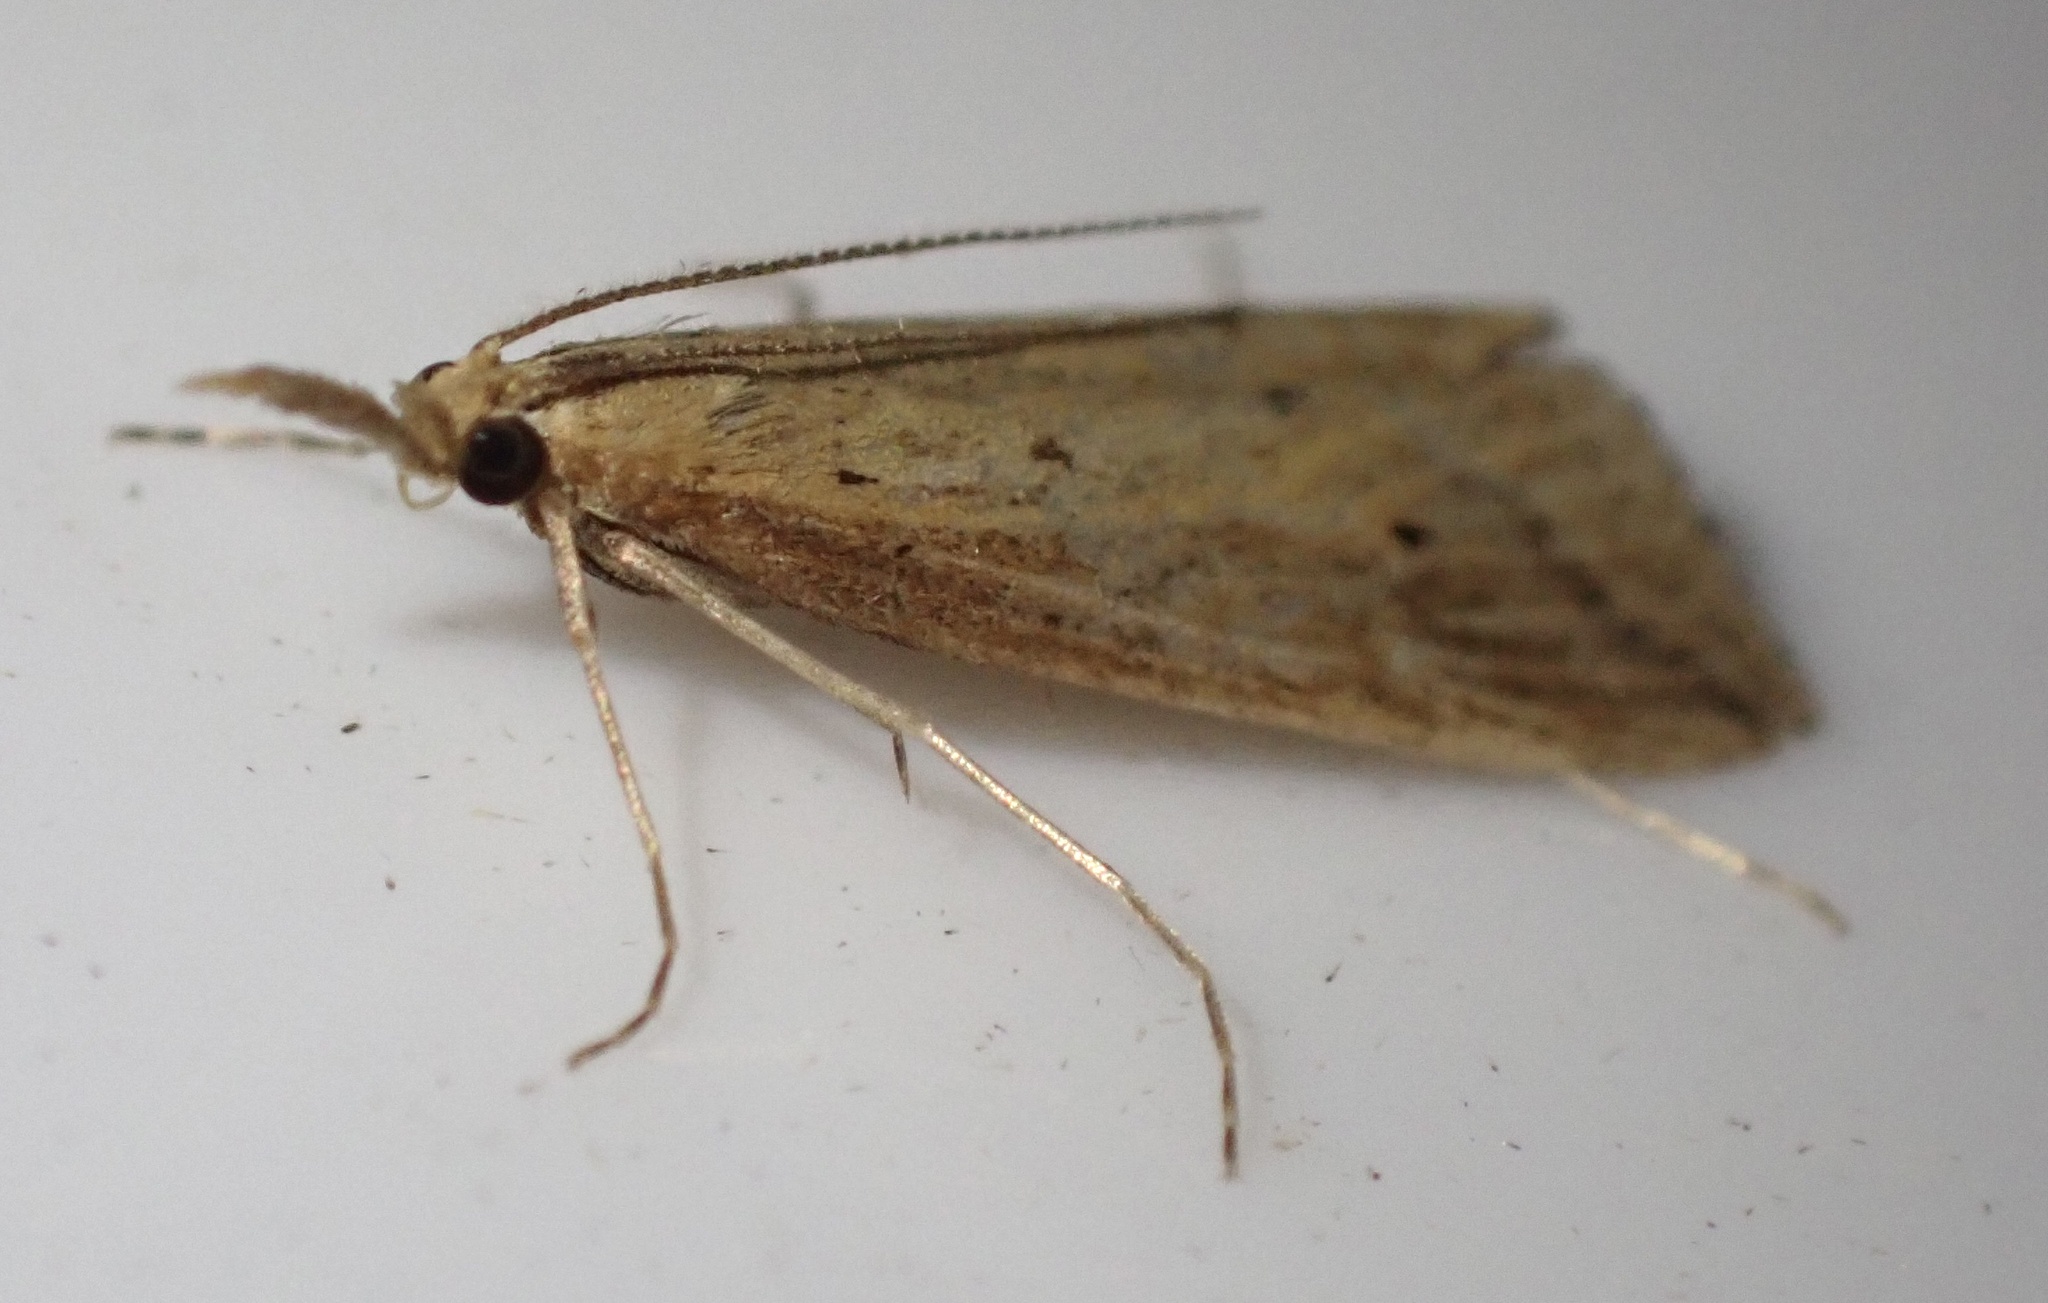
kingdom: Animalia
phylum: Arthropoda
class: Insecta
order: Lepidoptera
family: Crambidae
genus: Donacaula
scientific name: Donacaula forficella
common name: Pale water-veneer
